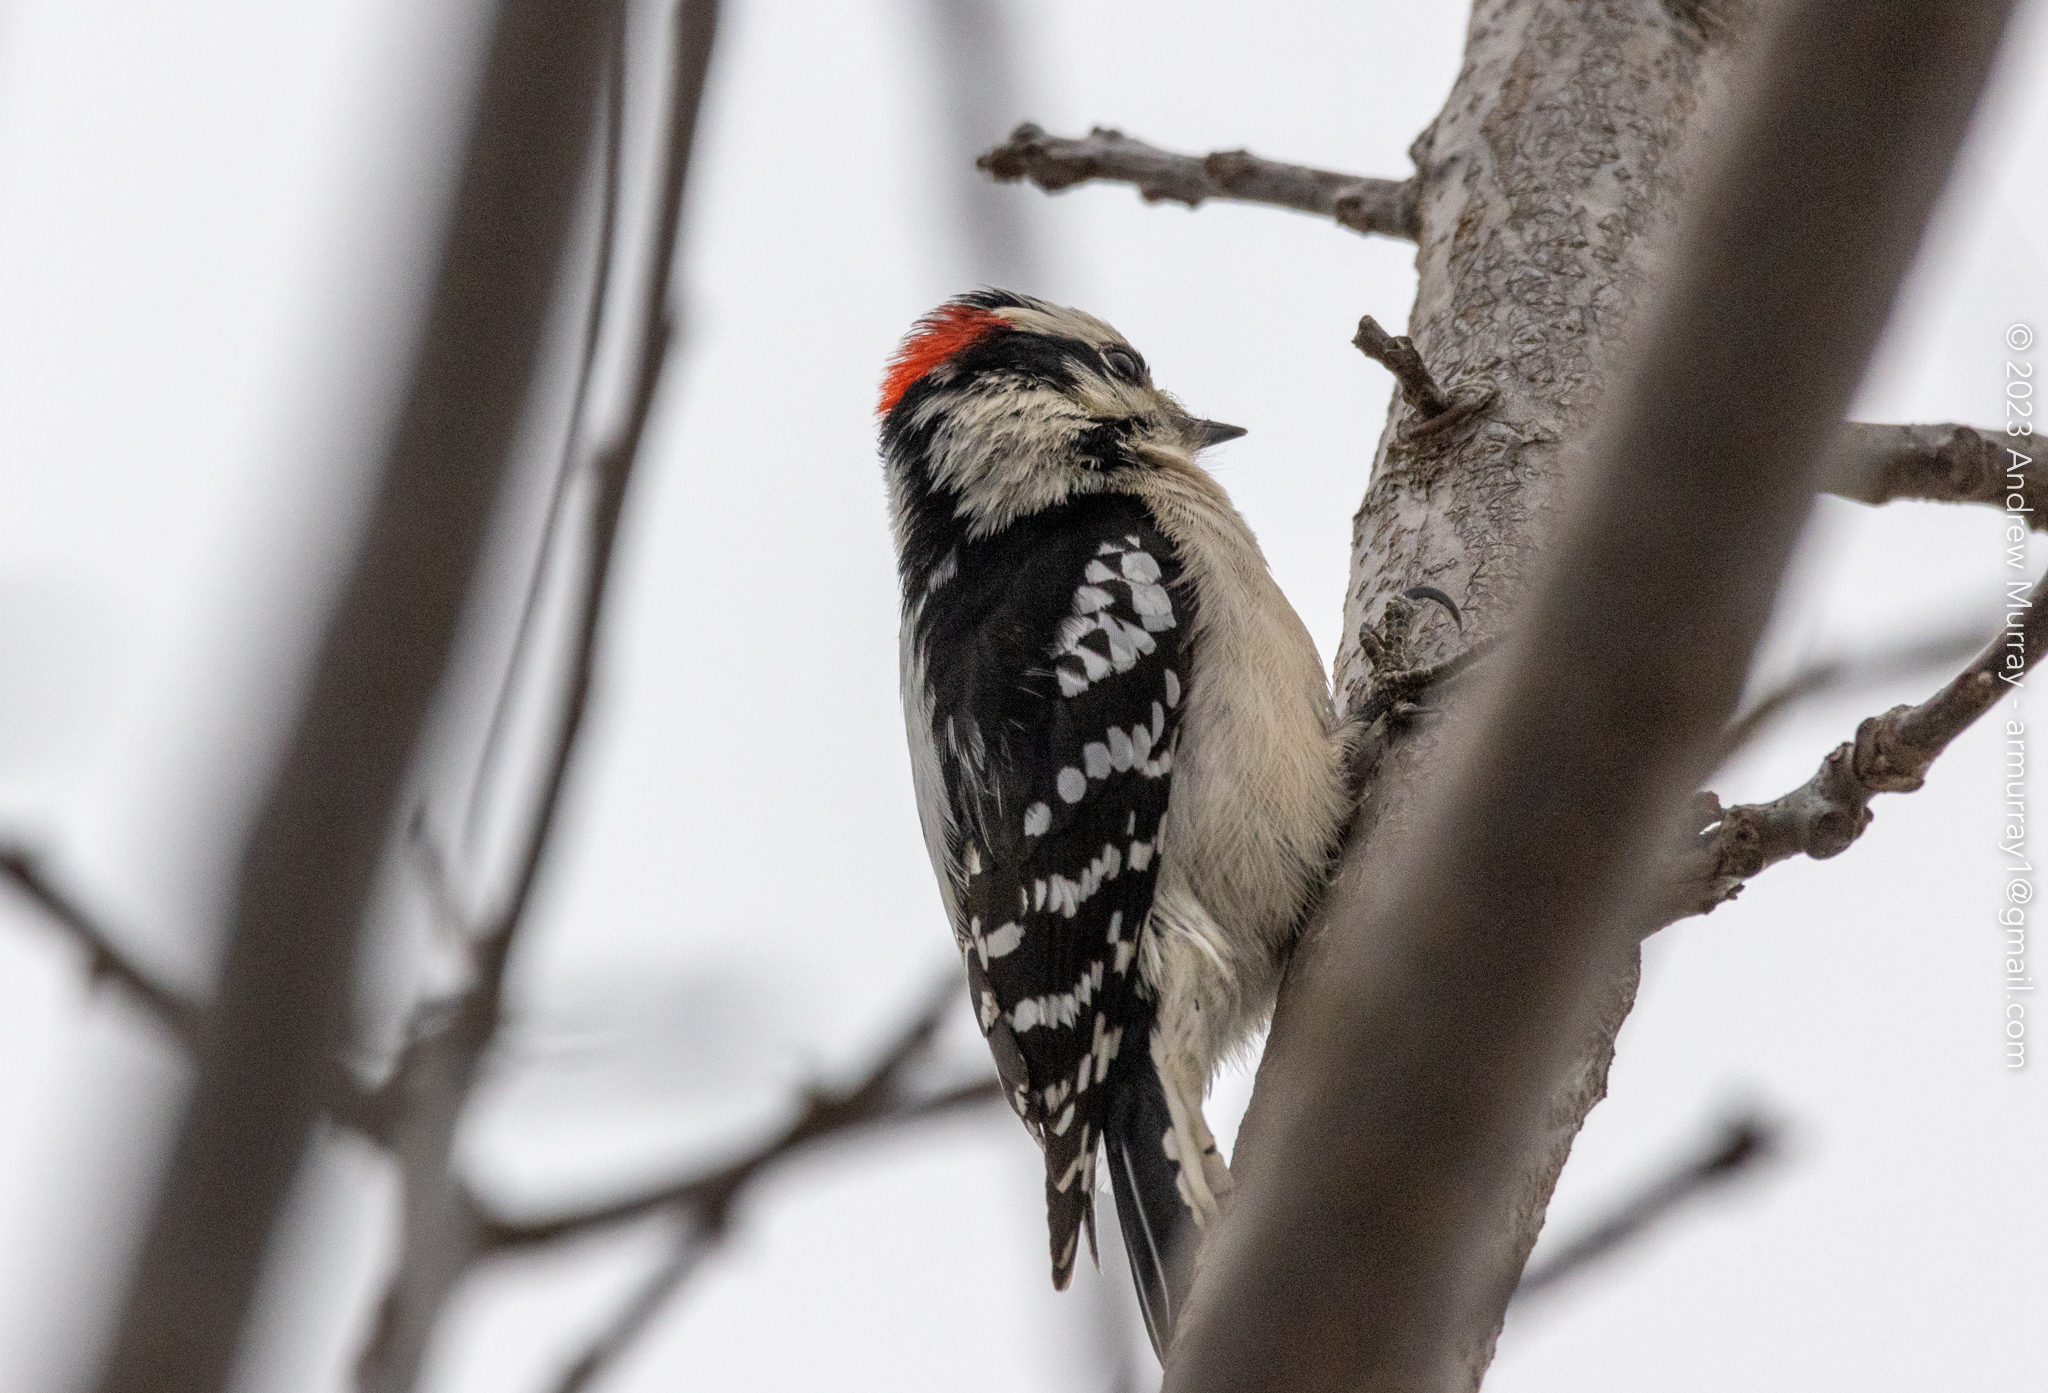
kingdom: Animalia
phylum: Chordata
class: Aves
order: Piciformes
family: Picidae
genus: Dryobates
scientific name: Dryobates pubescens
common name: Downy woodpecker
